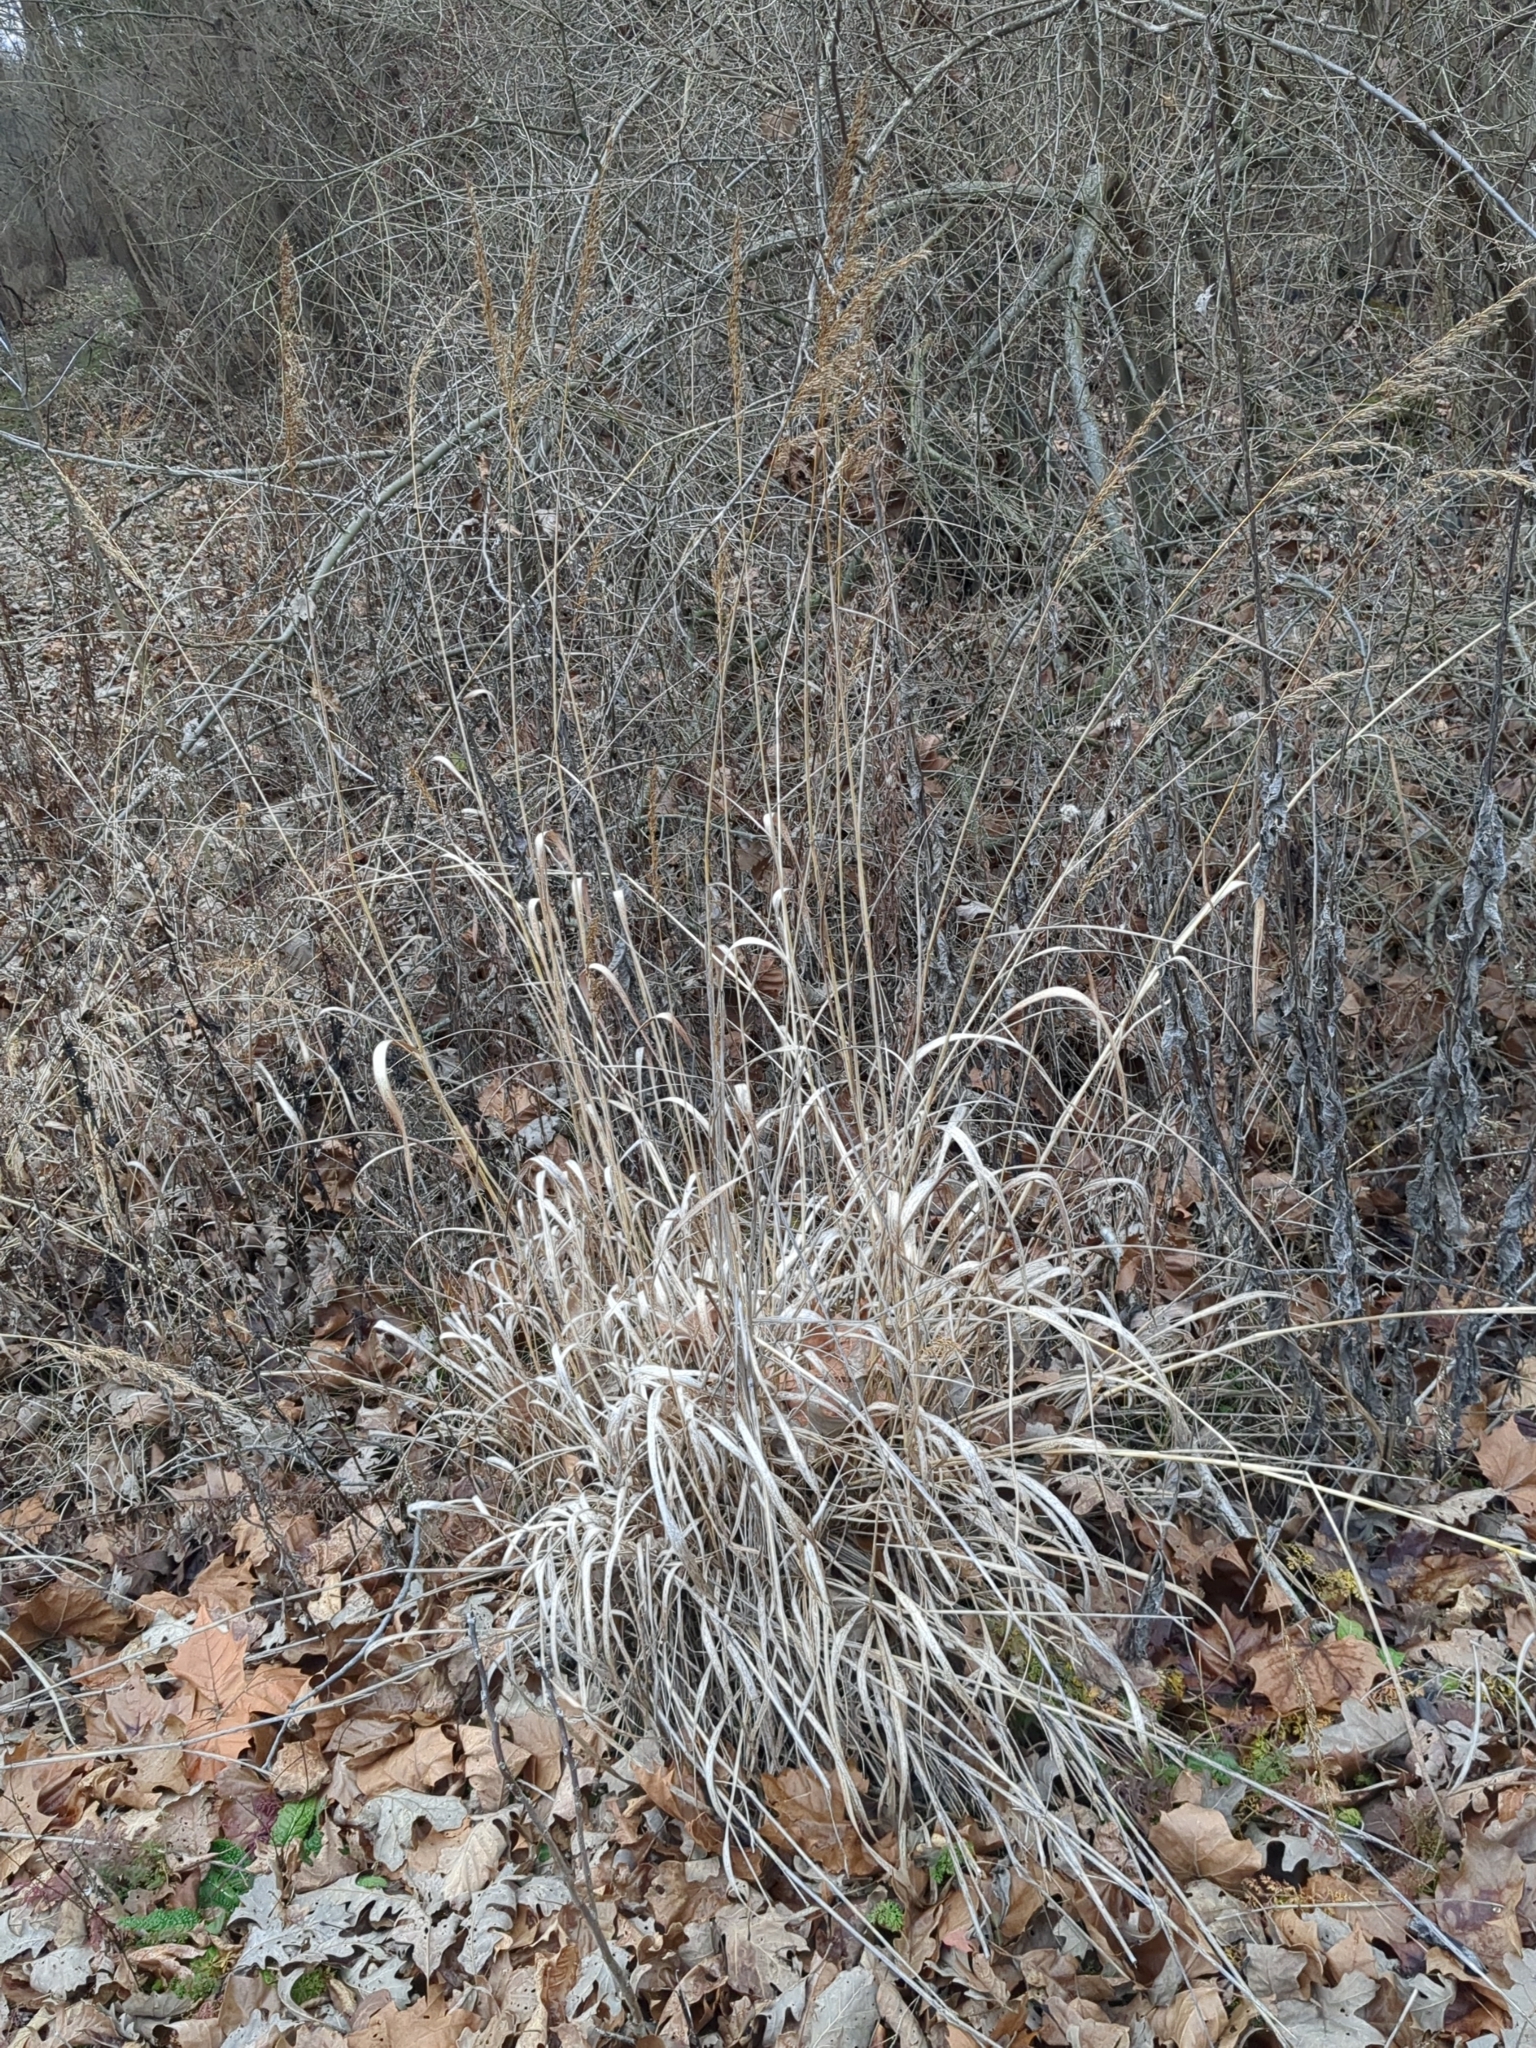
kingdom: Plantae
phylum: Tracheophyta
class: Liliopsida
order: Poales
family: Poaceae
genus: Sorghastrum
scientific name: Sorghastrum nutans
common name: Indian grass
